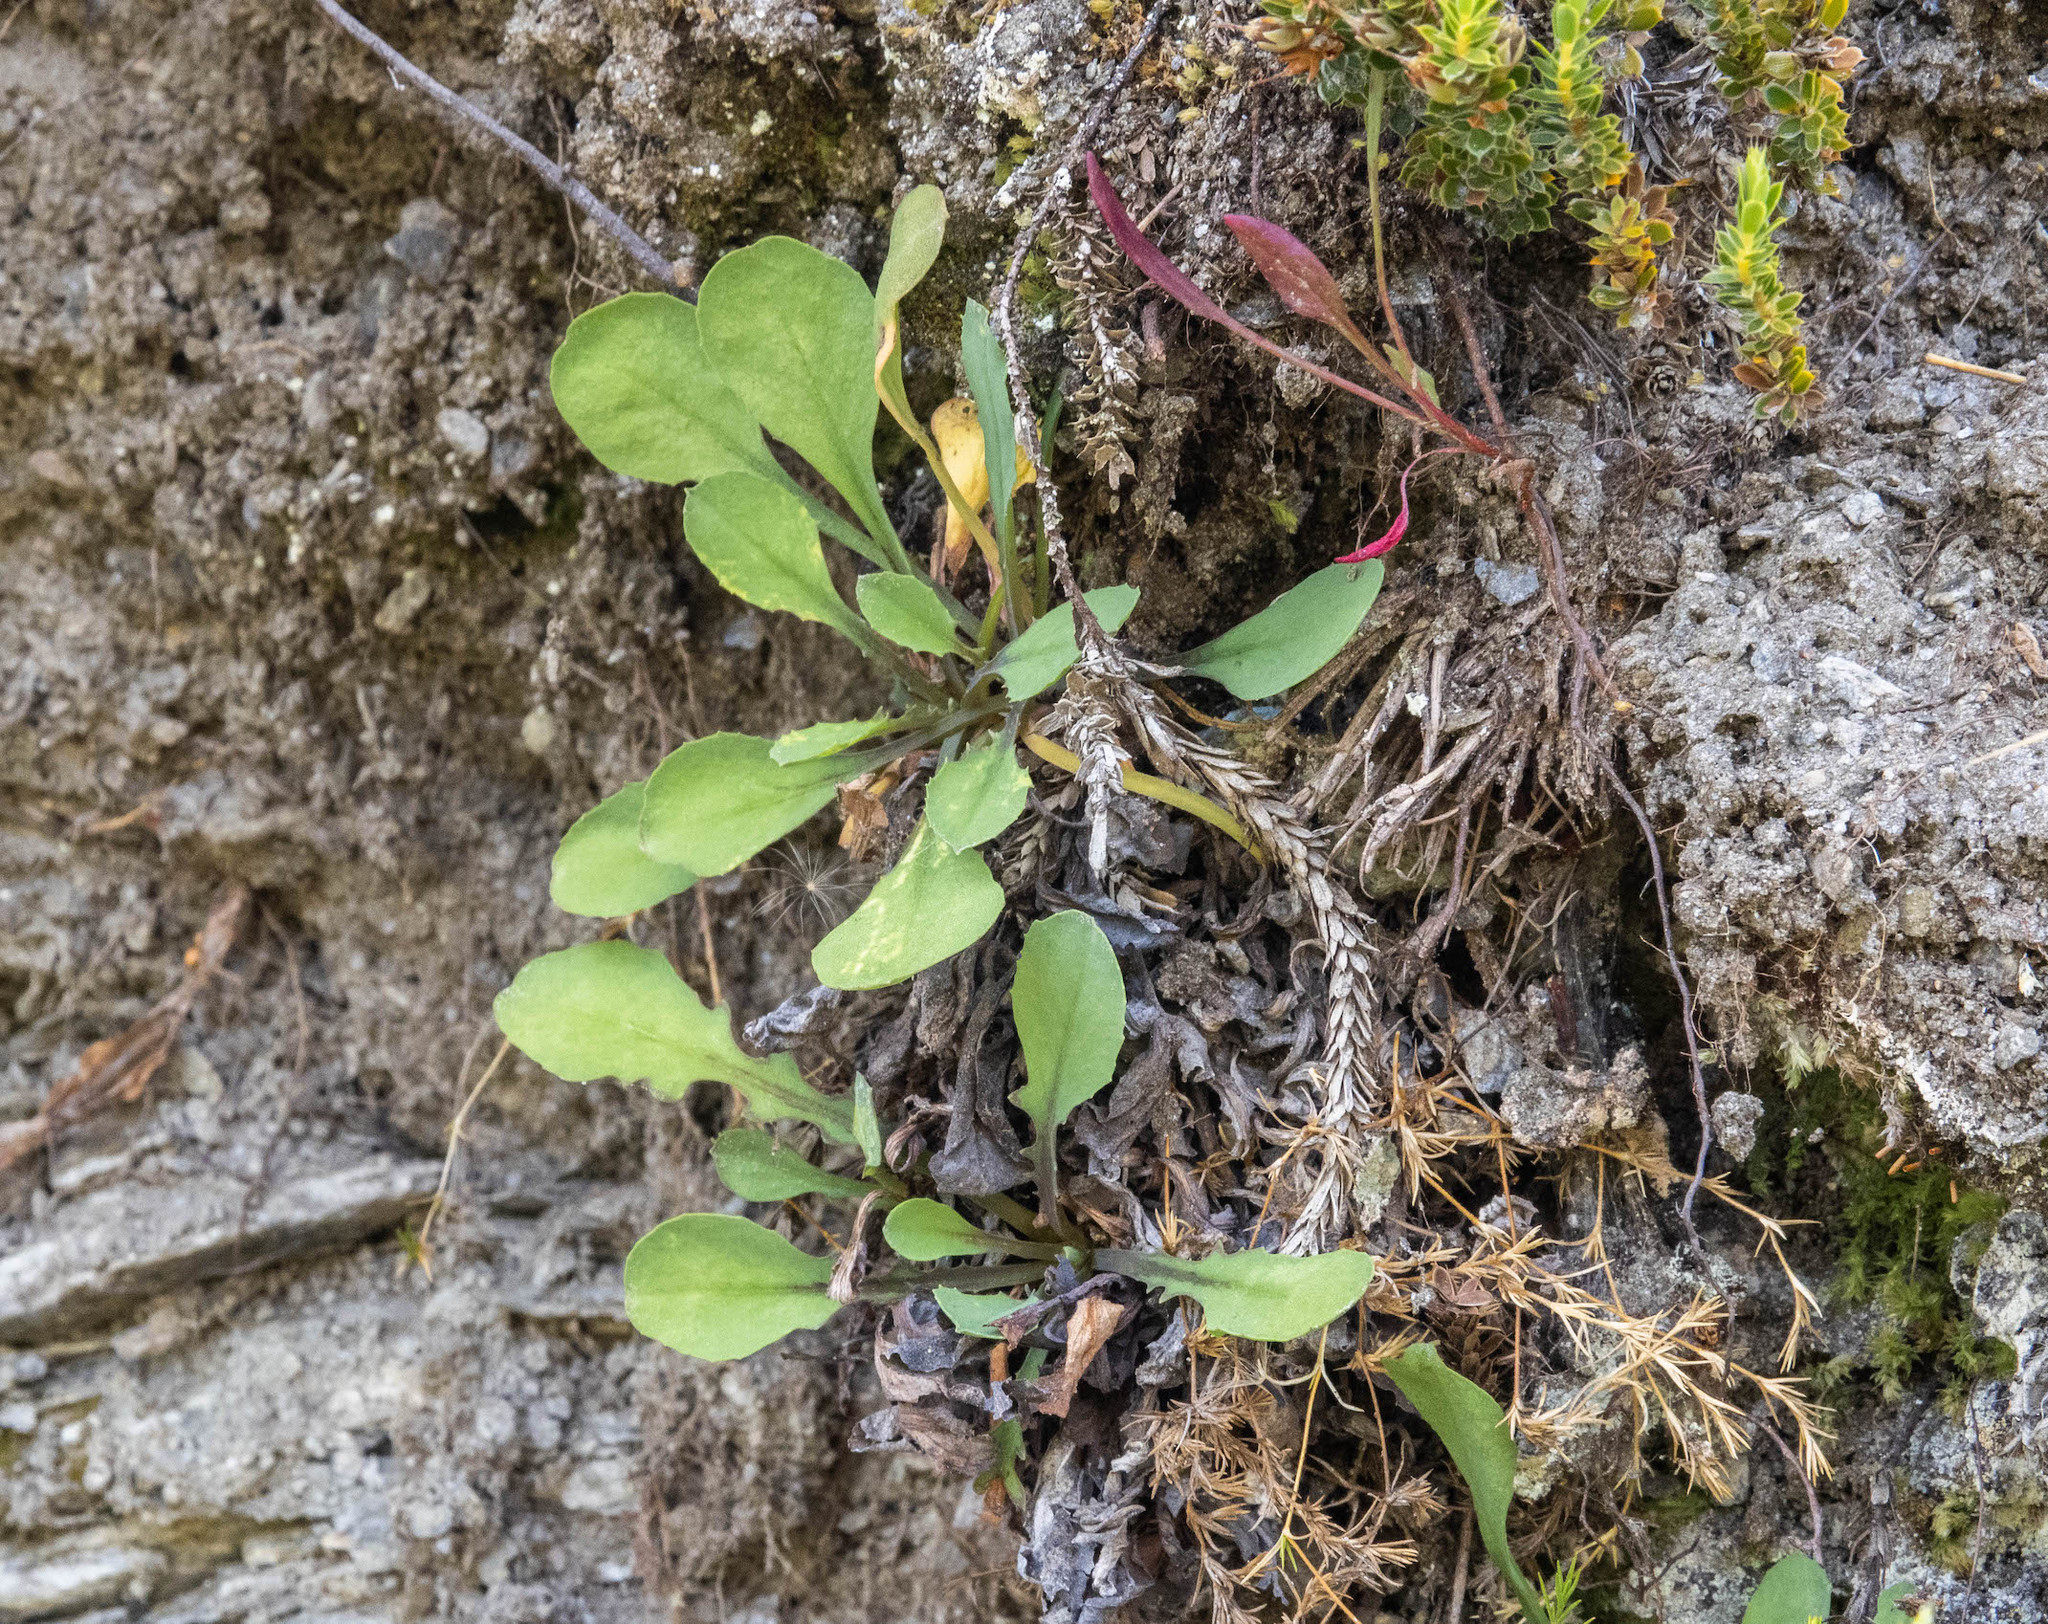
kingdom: Plantae
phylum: Tracheophyta
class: Magnoliopsida
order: Asterales
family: Asteraceae
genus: Sonchus
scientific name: Sonchus novae-zelandiae
